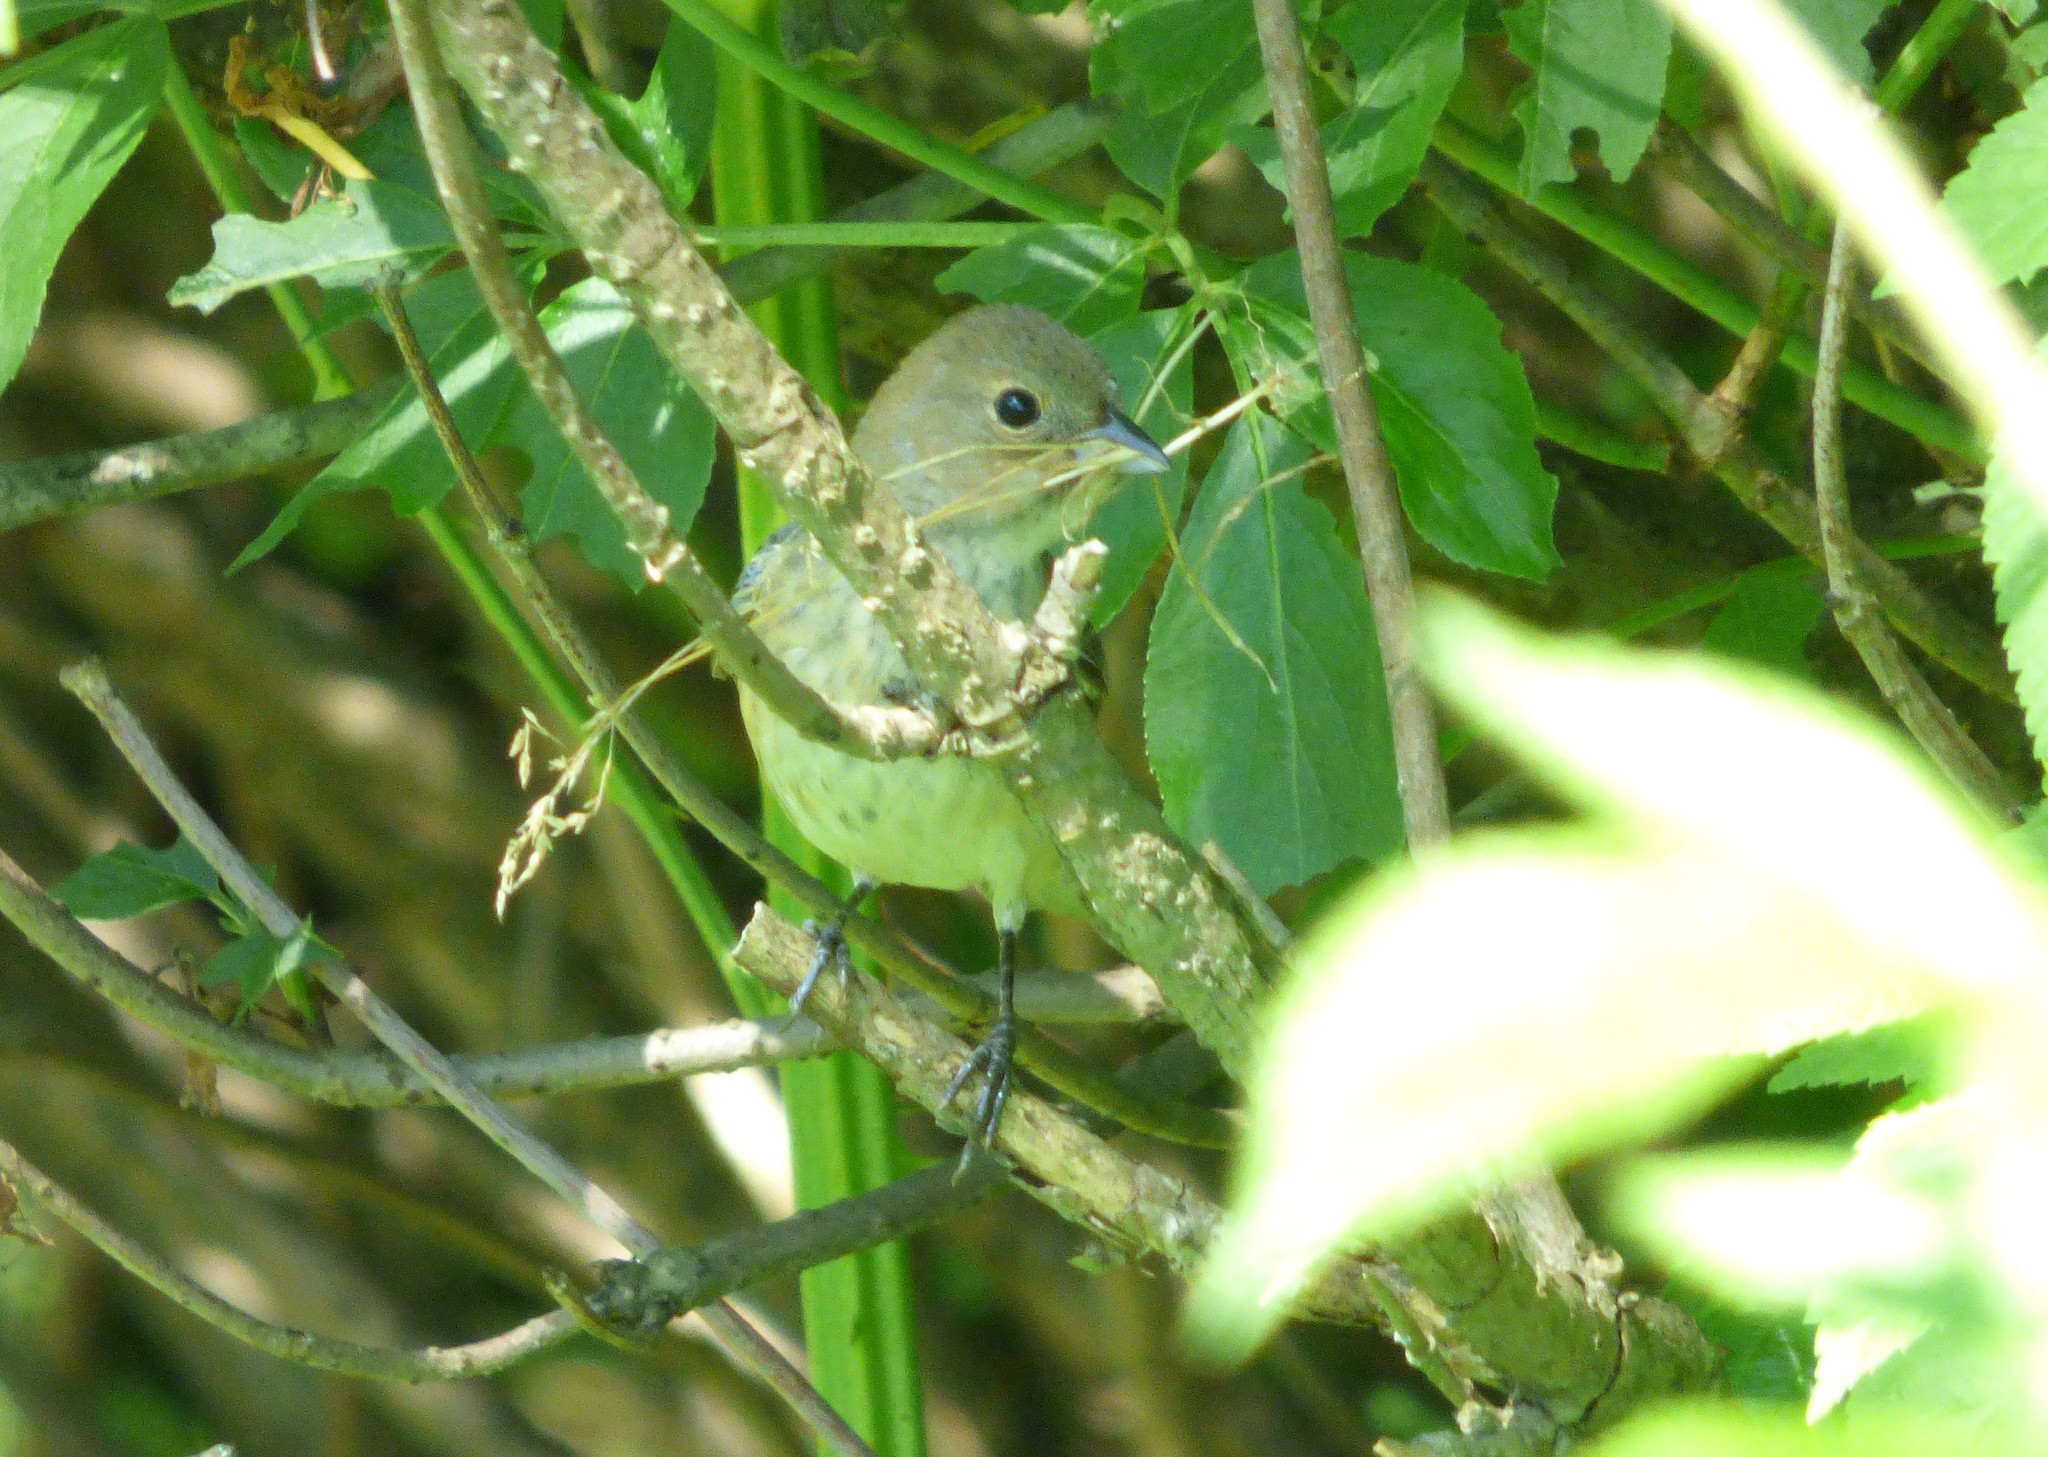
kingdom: Animalia
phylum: Chordata
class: Aves
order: Passeriformes
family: Cardinalidae
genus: Passerina
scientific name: Passerina cyanea
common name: Indigo bunting
